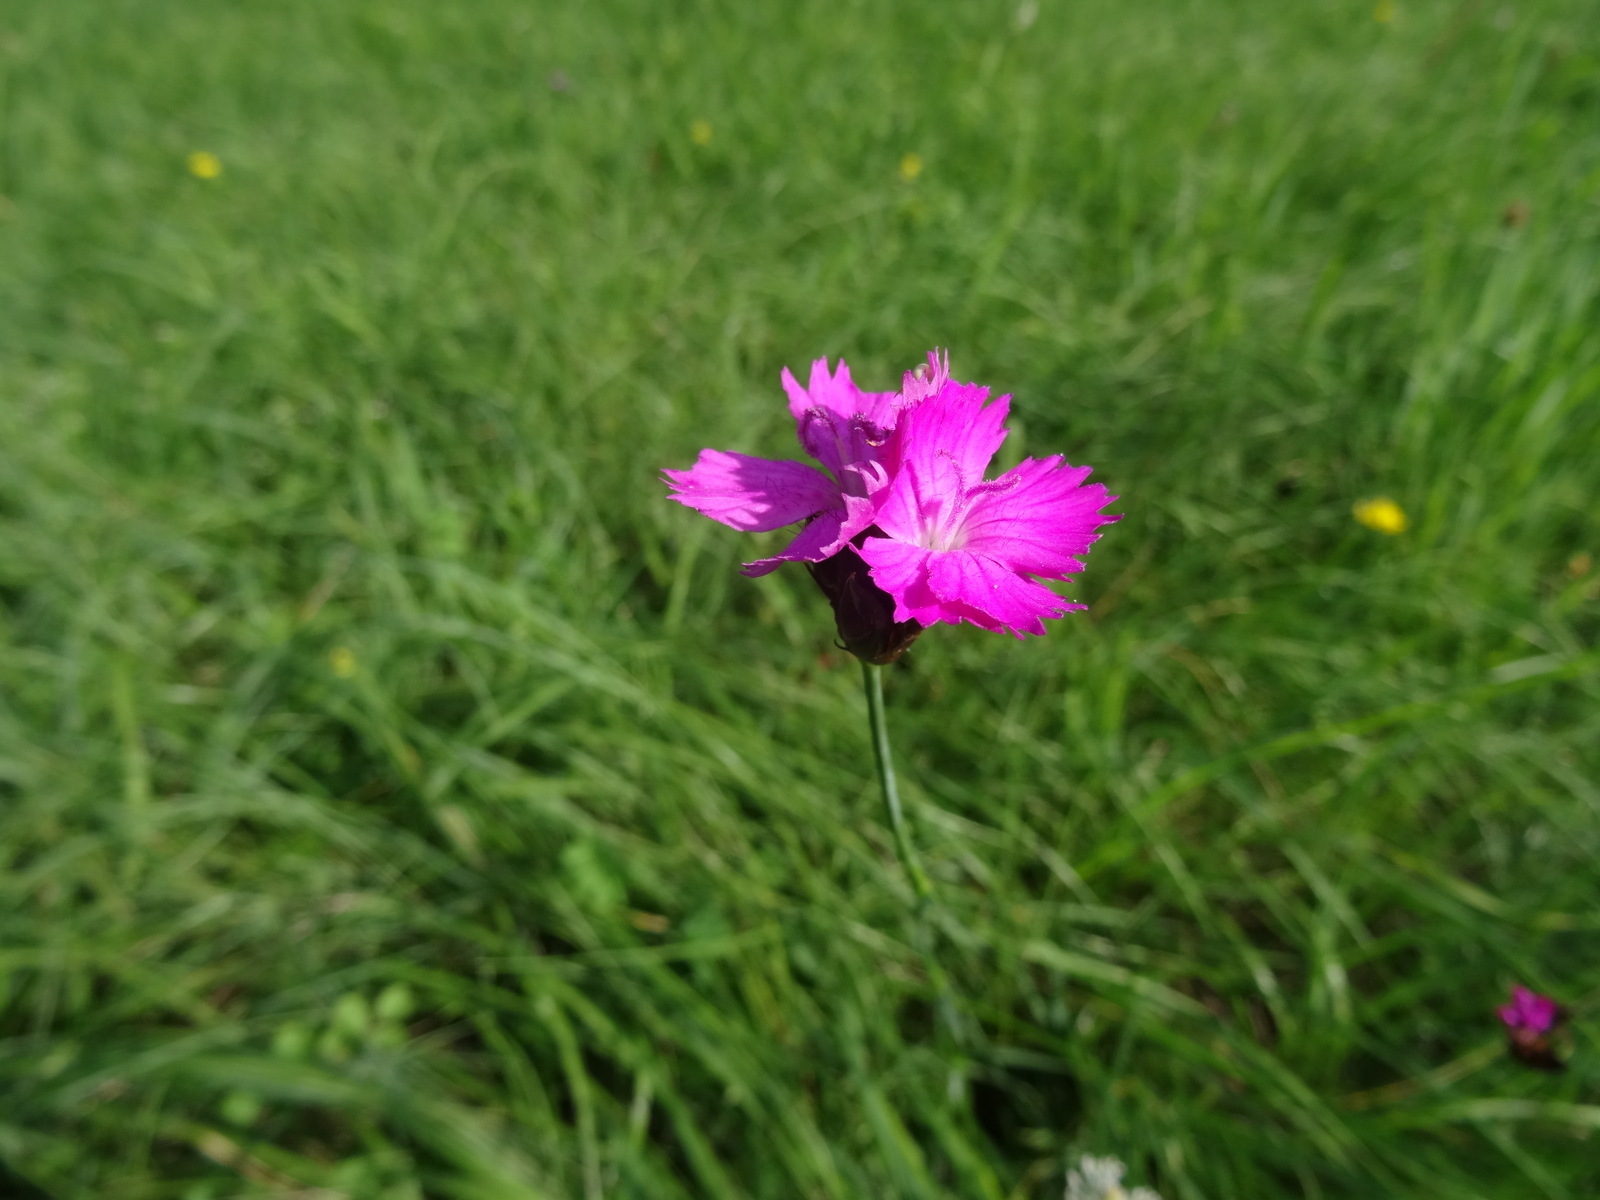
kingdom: Plantae
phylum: Tracheophyta
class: Magnoliopsida
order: Caryophyllales
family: Caryophyllaceae
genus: Dianthus
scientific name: Dianthus carthusianorum
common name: Carthusian pink
